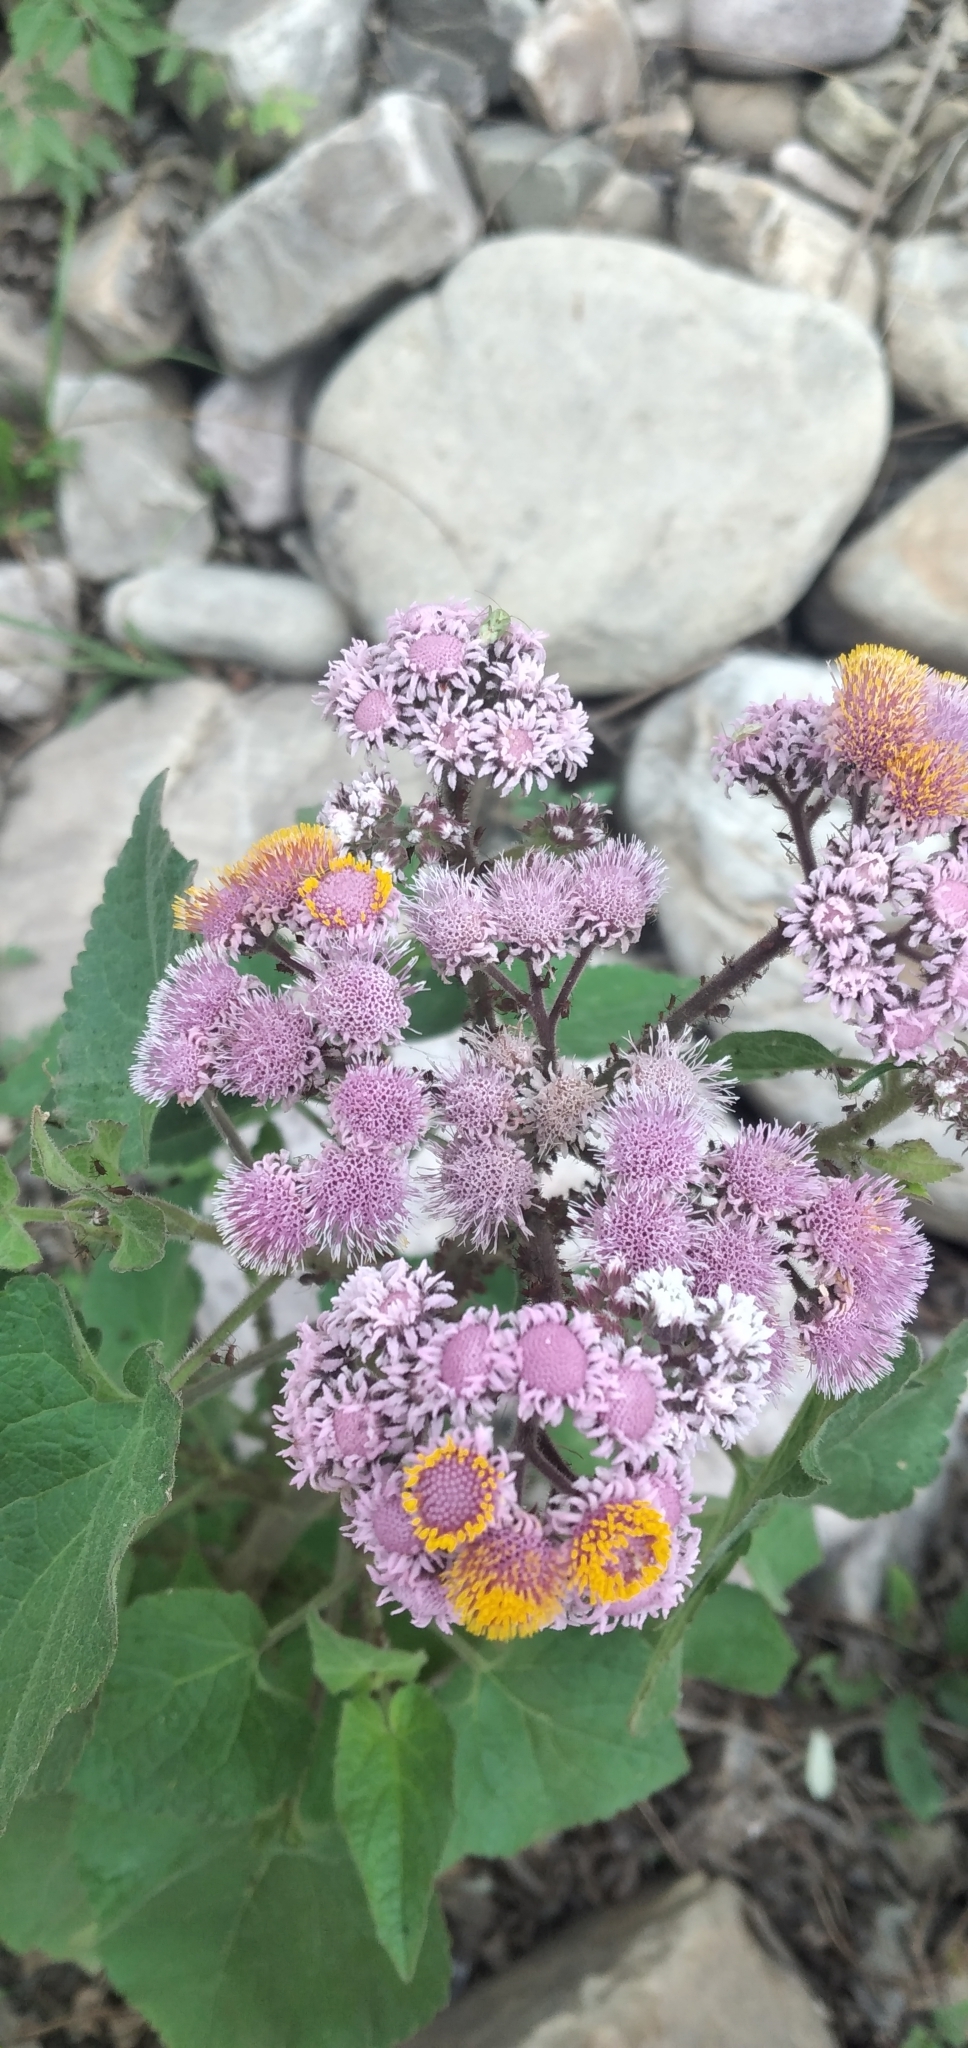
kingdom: Plantae
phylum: Tracheophyta
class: Magnoliopsida
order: Asterales
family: Asteraceae
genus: Urolepis
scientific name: Urolepis hecatantha
